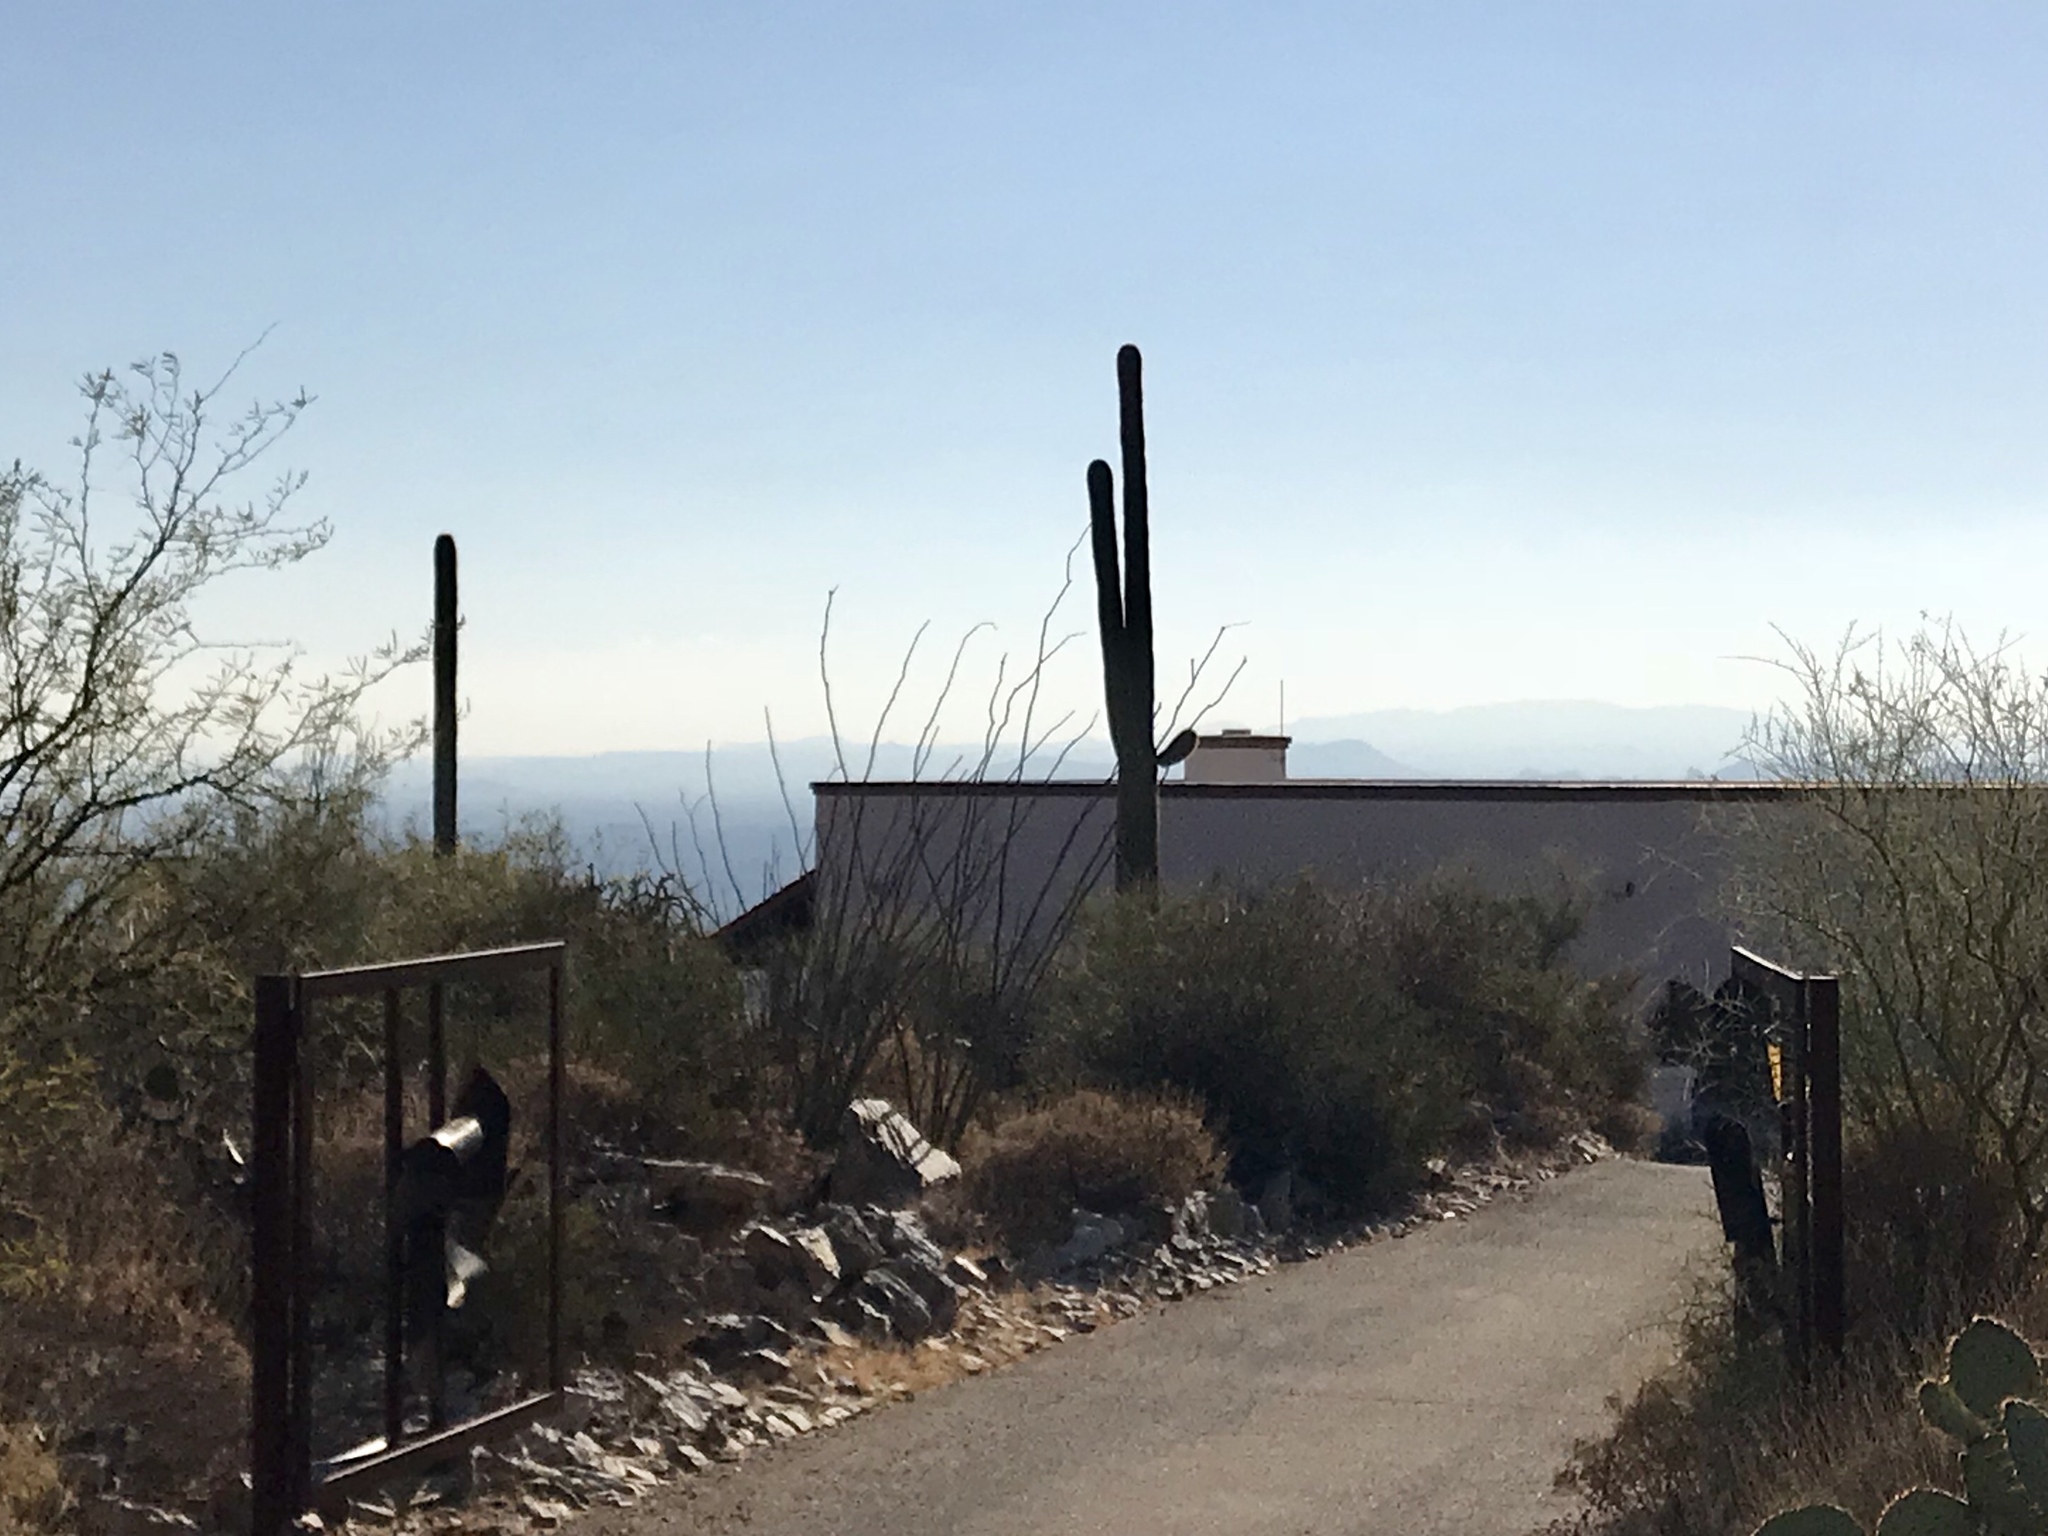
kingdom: Plantae
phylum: Tracheophyta
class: Magnoliopsida
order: Caryophyllales
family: Cactaceae
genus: Carnegiea
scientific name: Carnegiea gigantea
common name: Saguaro
